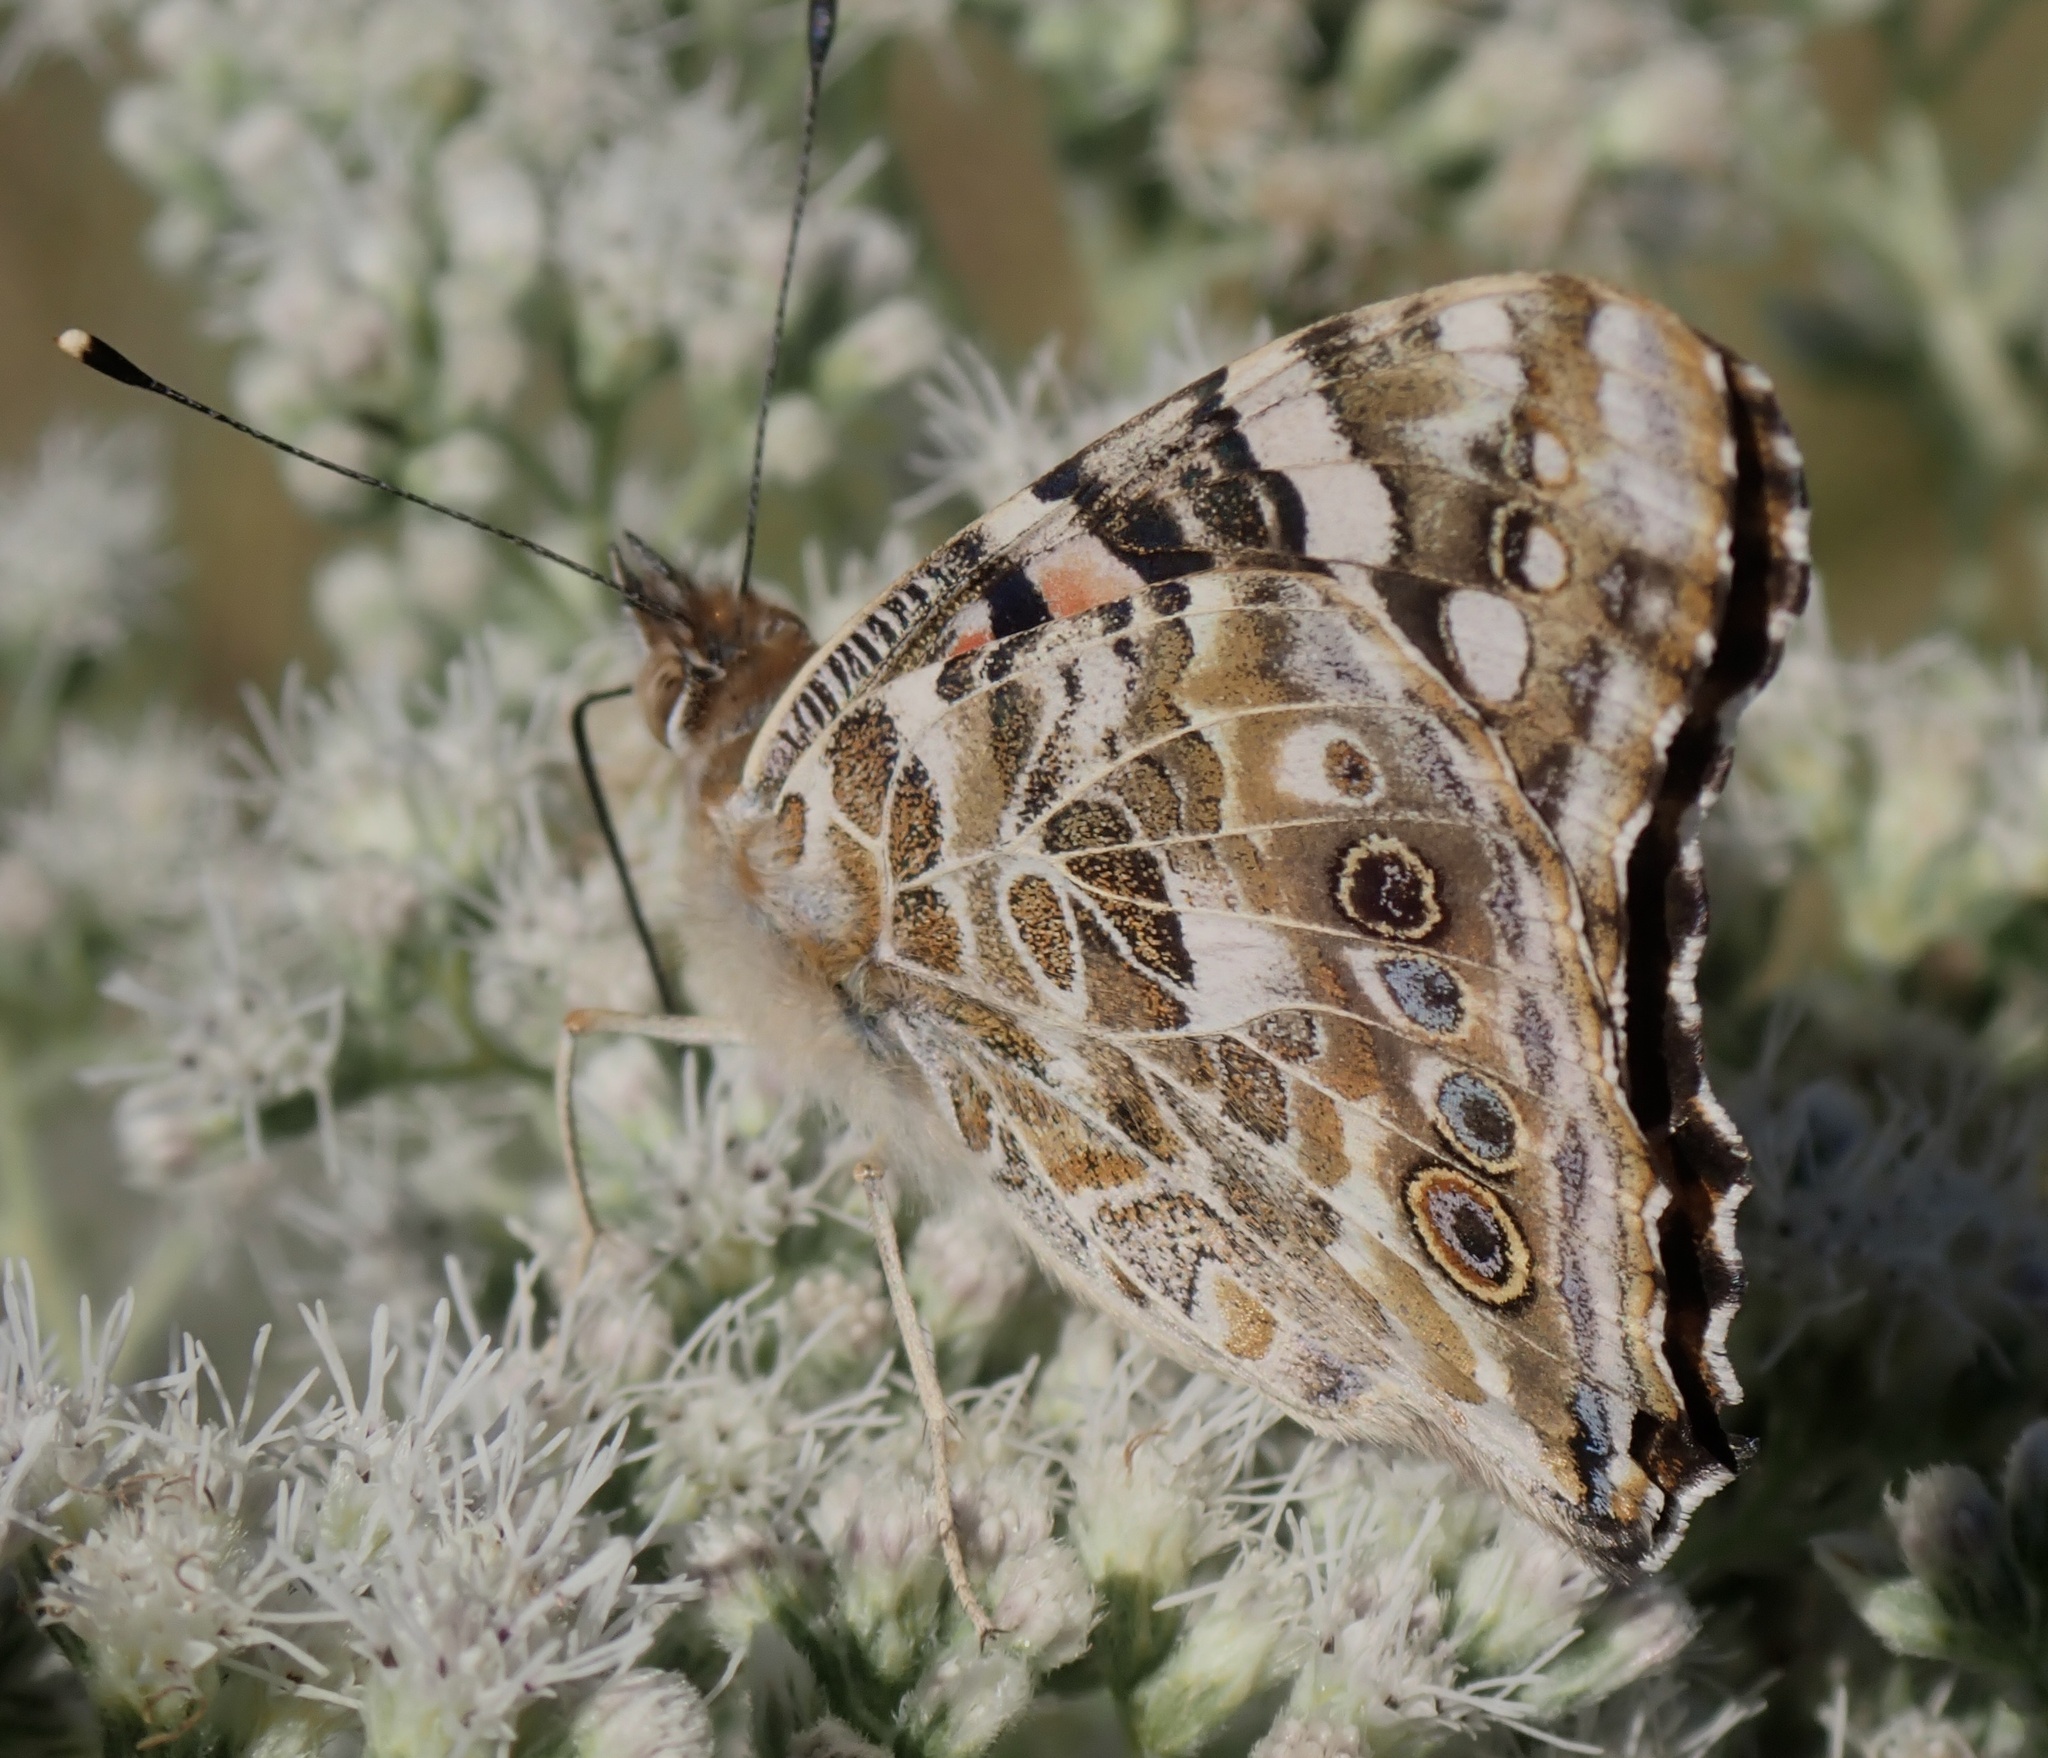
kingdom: Animalia
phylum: Arthropoda
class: Insecta
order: Lepidoptera
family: Nymphalidae
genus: Vanessa
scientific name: Vanessa cardui
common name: Painted lady
